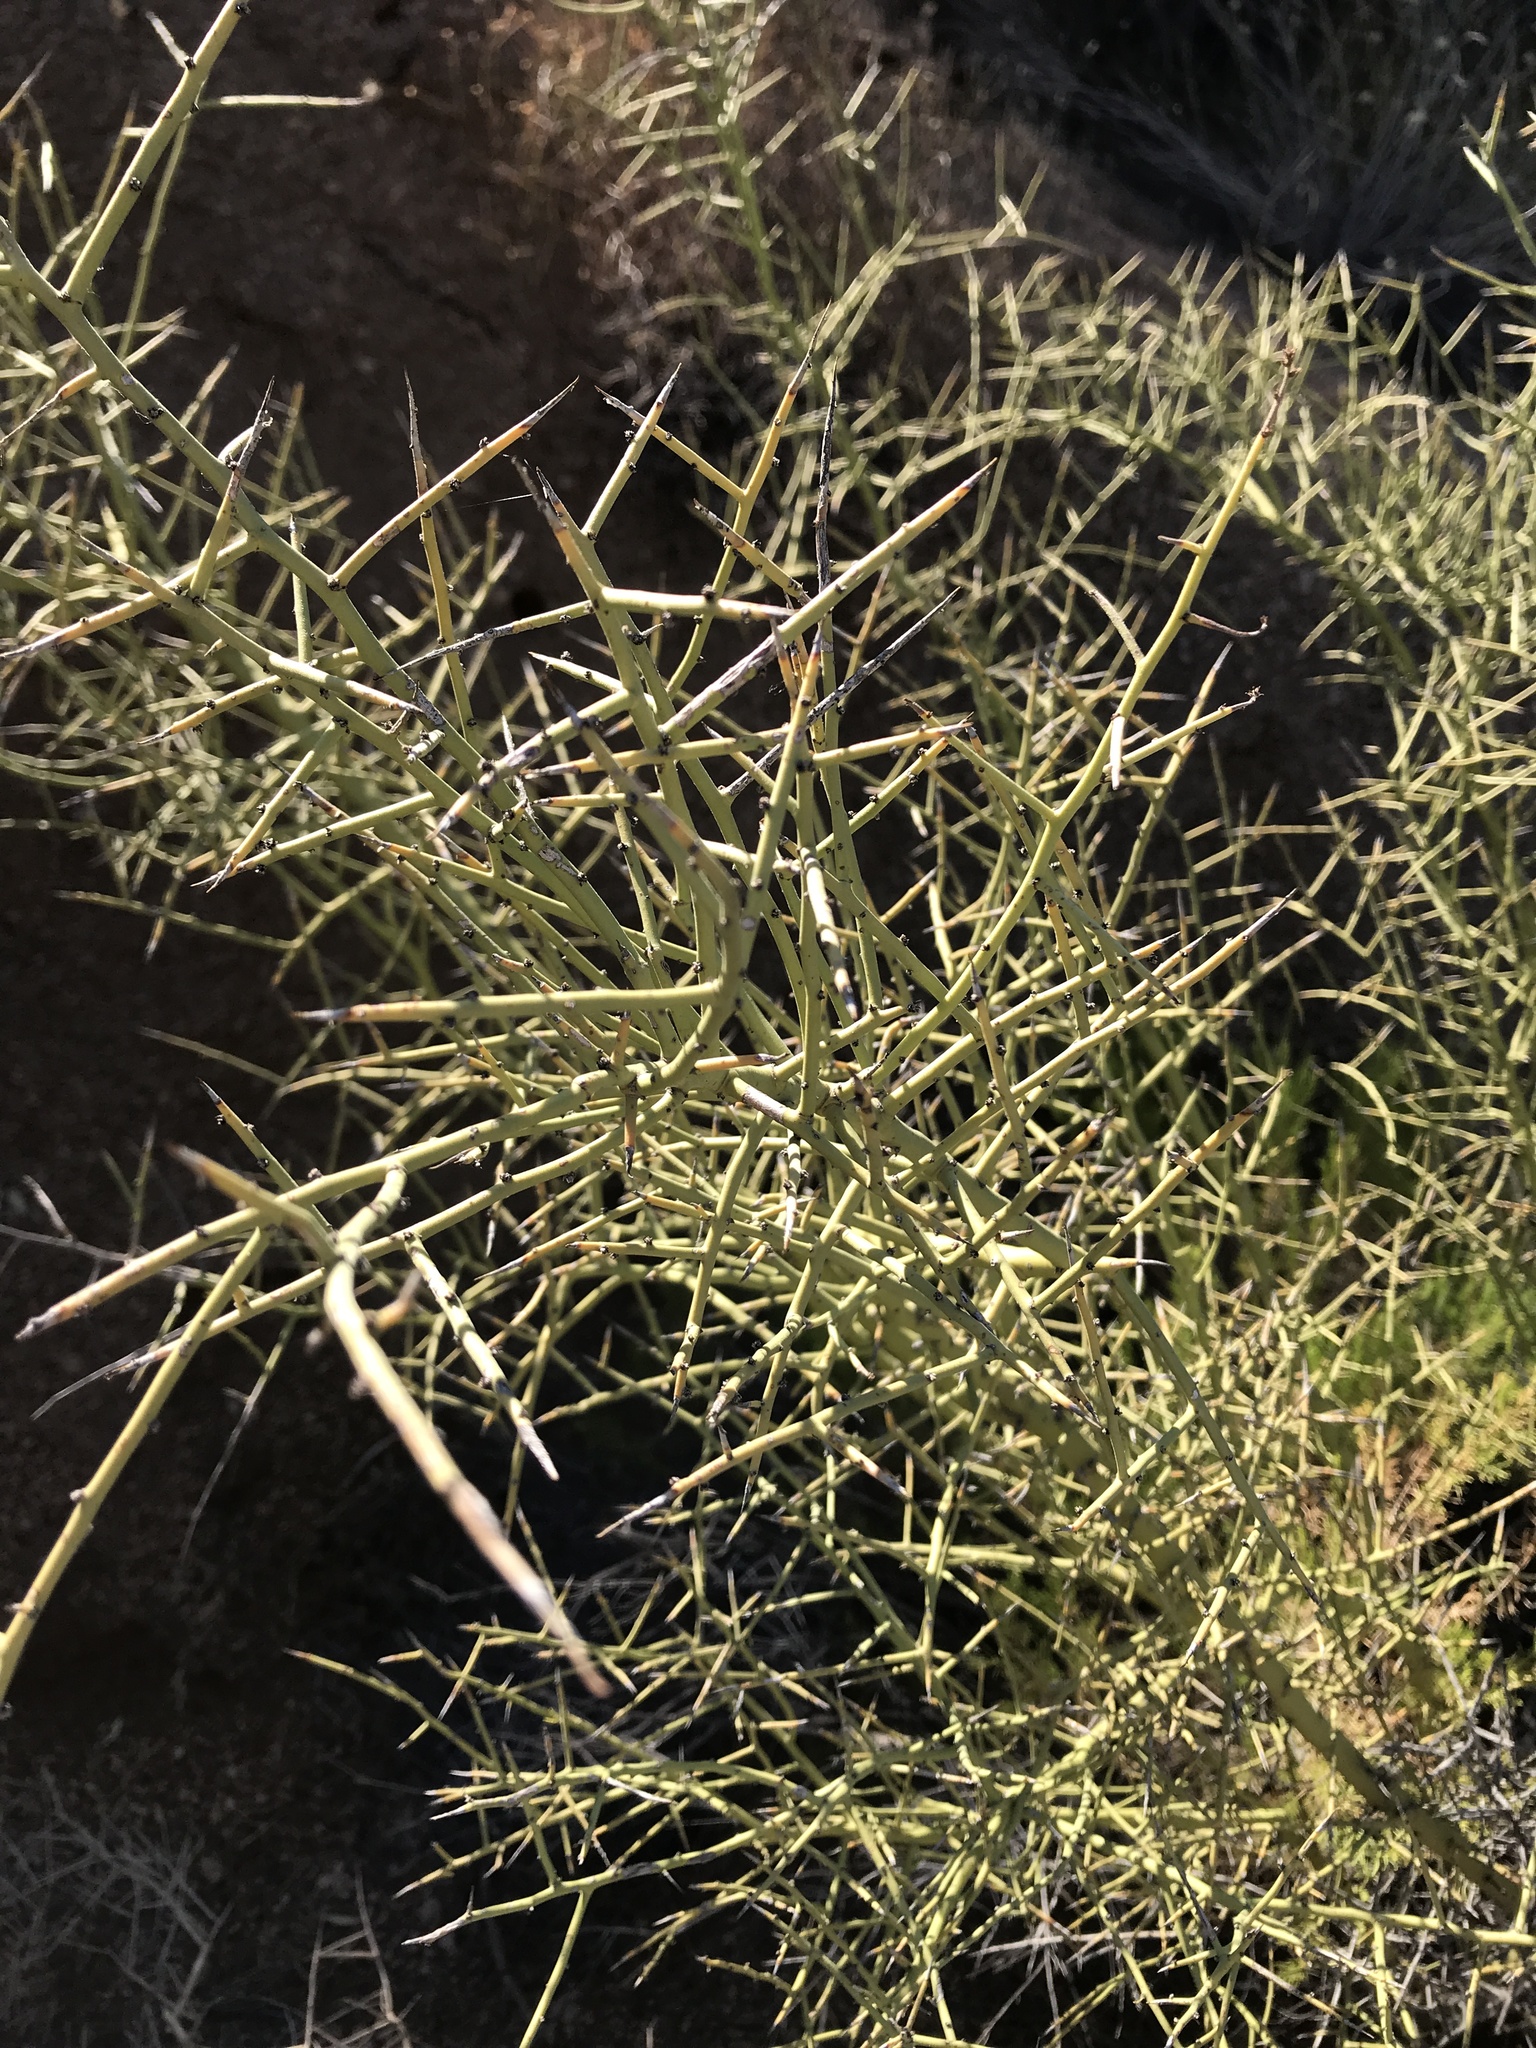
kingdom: Plantae
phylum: Tracheophyta
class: Magnoliopsida
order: Fabales
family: Fabaceae
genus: Parkinsonia
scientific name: Parkinsonia microphylla
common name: Yellow paloverde
